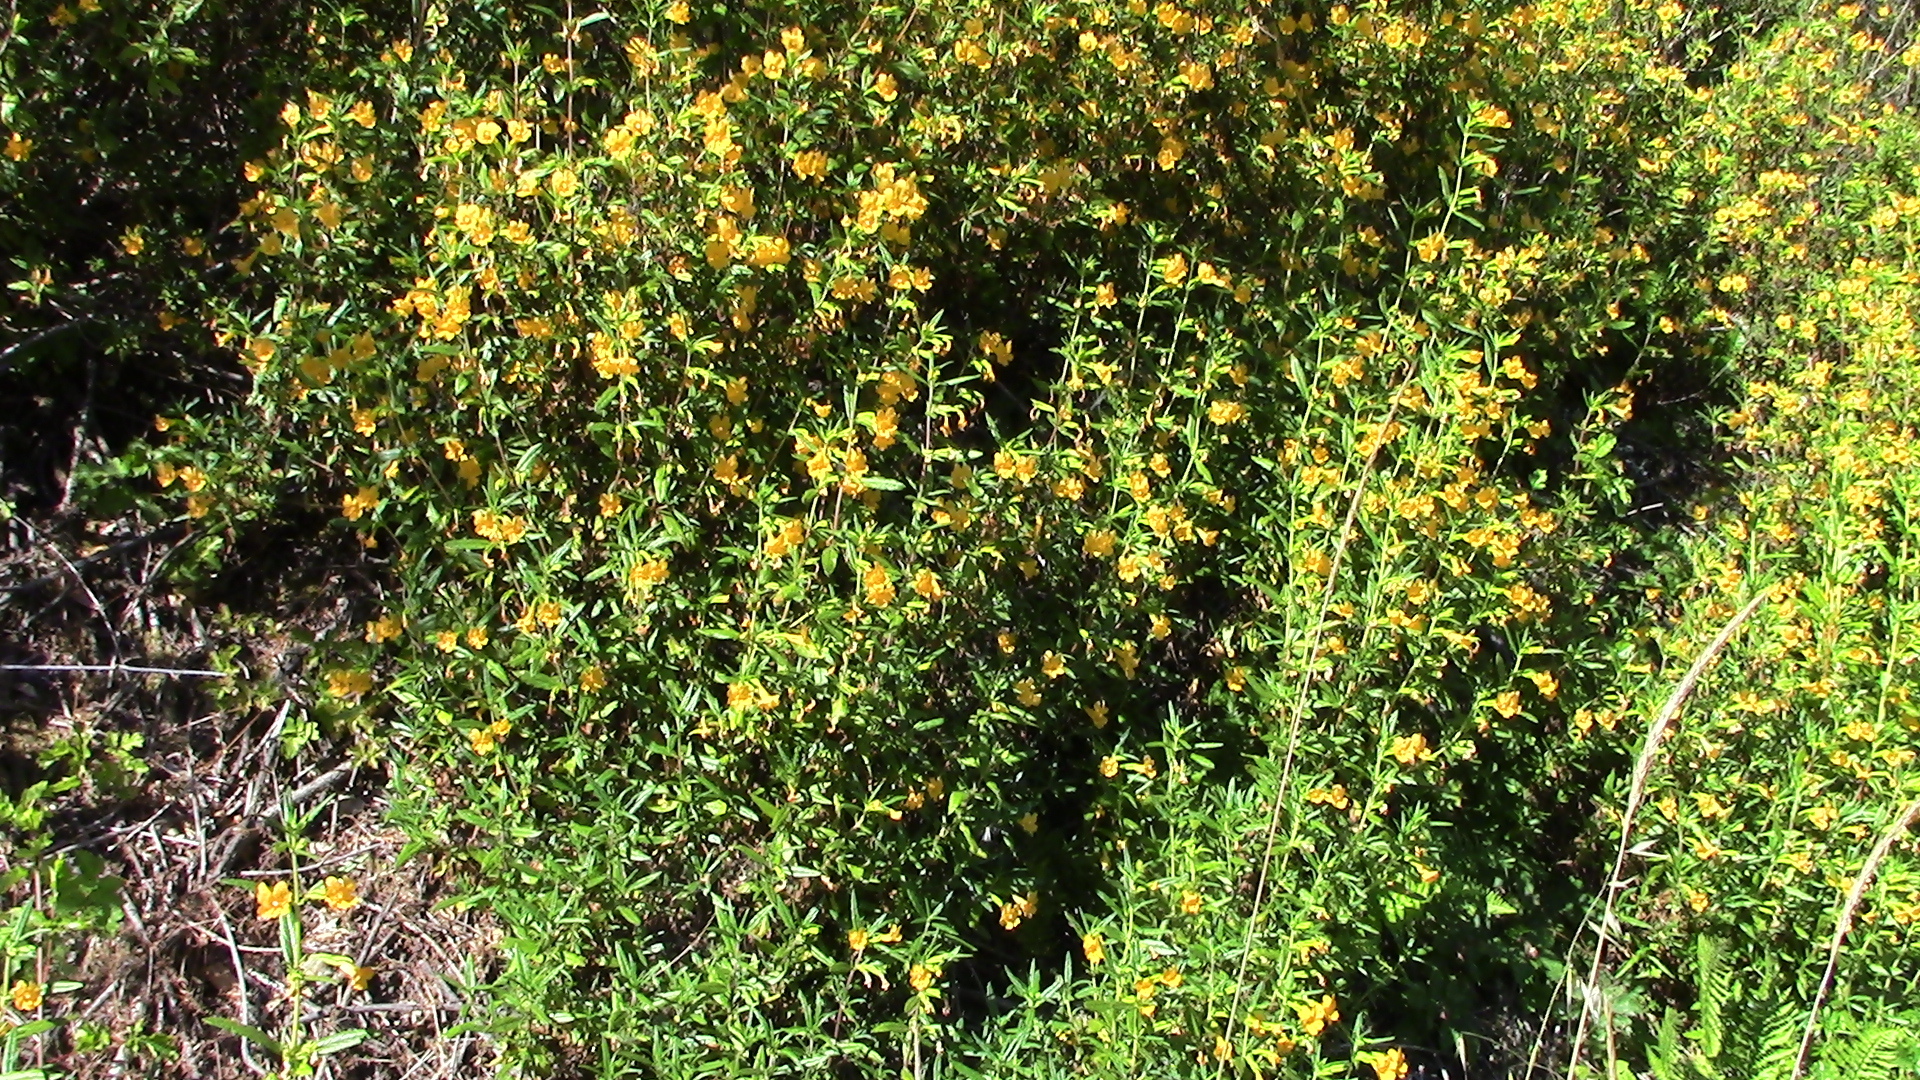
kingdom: Plantae
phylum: Tracheophyta
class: Magnoliopsida
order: Lamiales
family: Phrymaceae
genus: Diplacus
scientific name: Diplacus aurantiacus
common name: Bush monkey-flower
